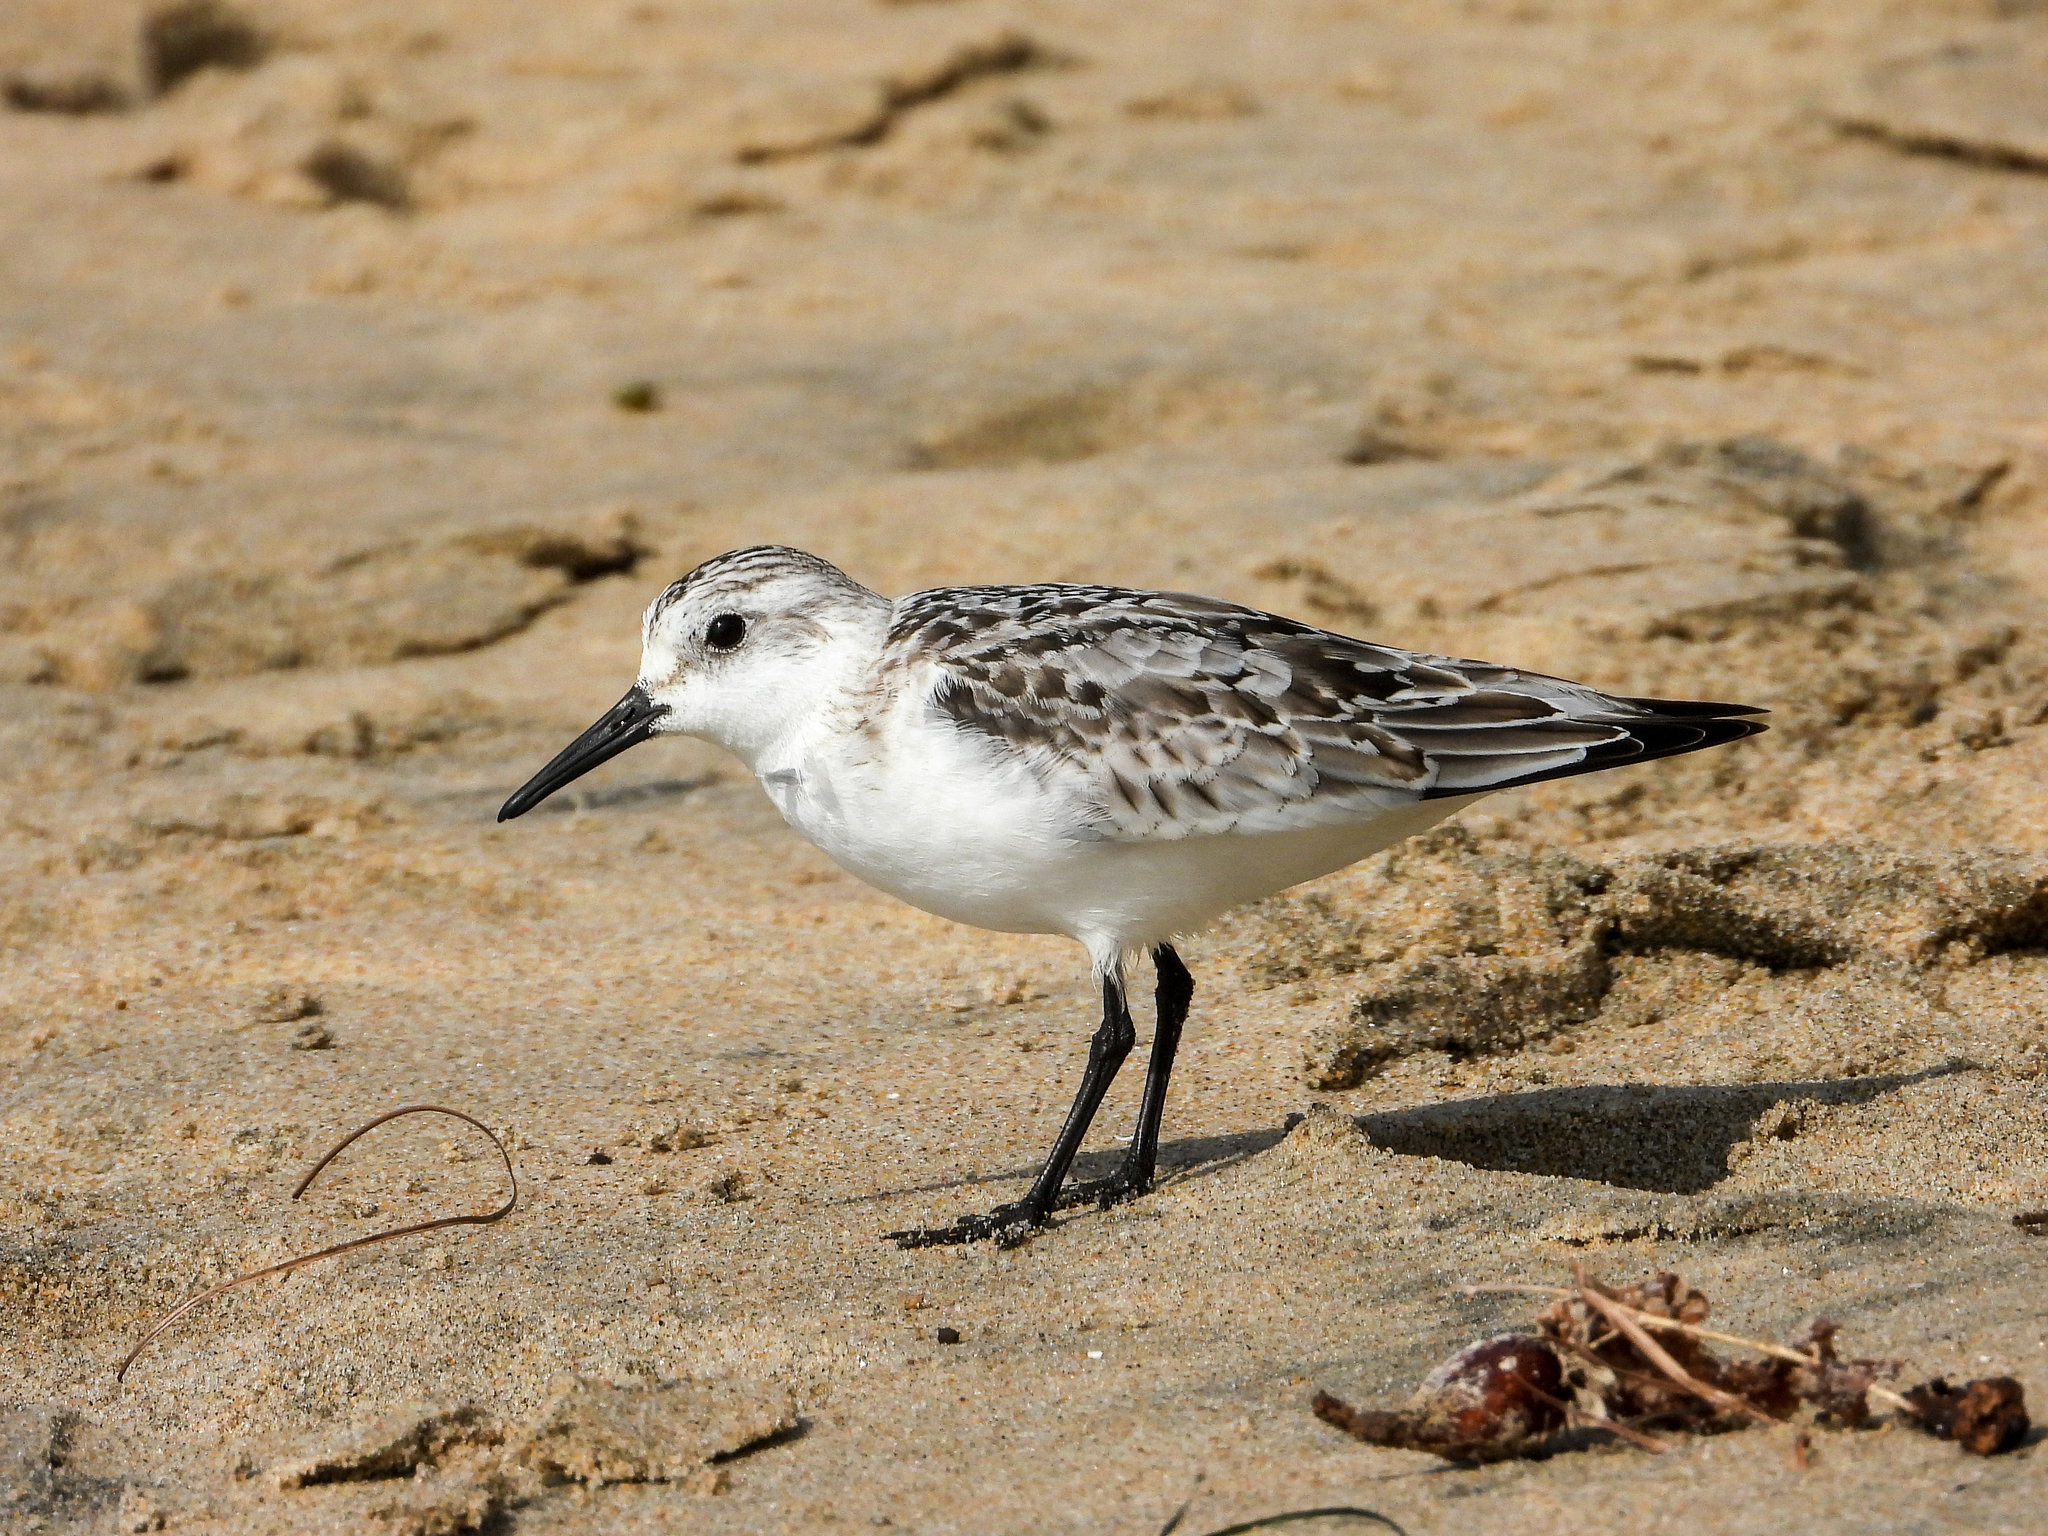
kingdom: Animalia
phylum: Chordata
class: Aves
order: Charadriiformes
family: Scolopacidae
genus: Calidris
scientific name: Calidris alba
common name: Sanderling
